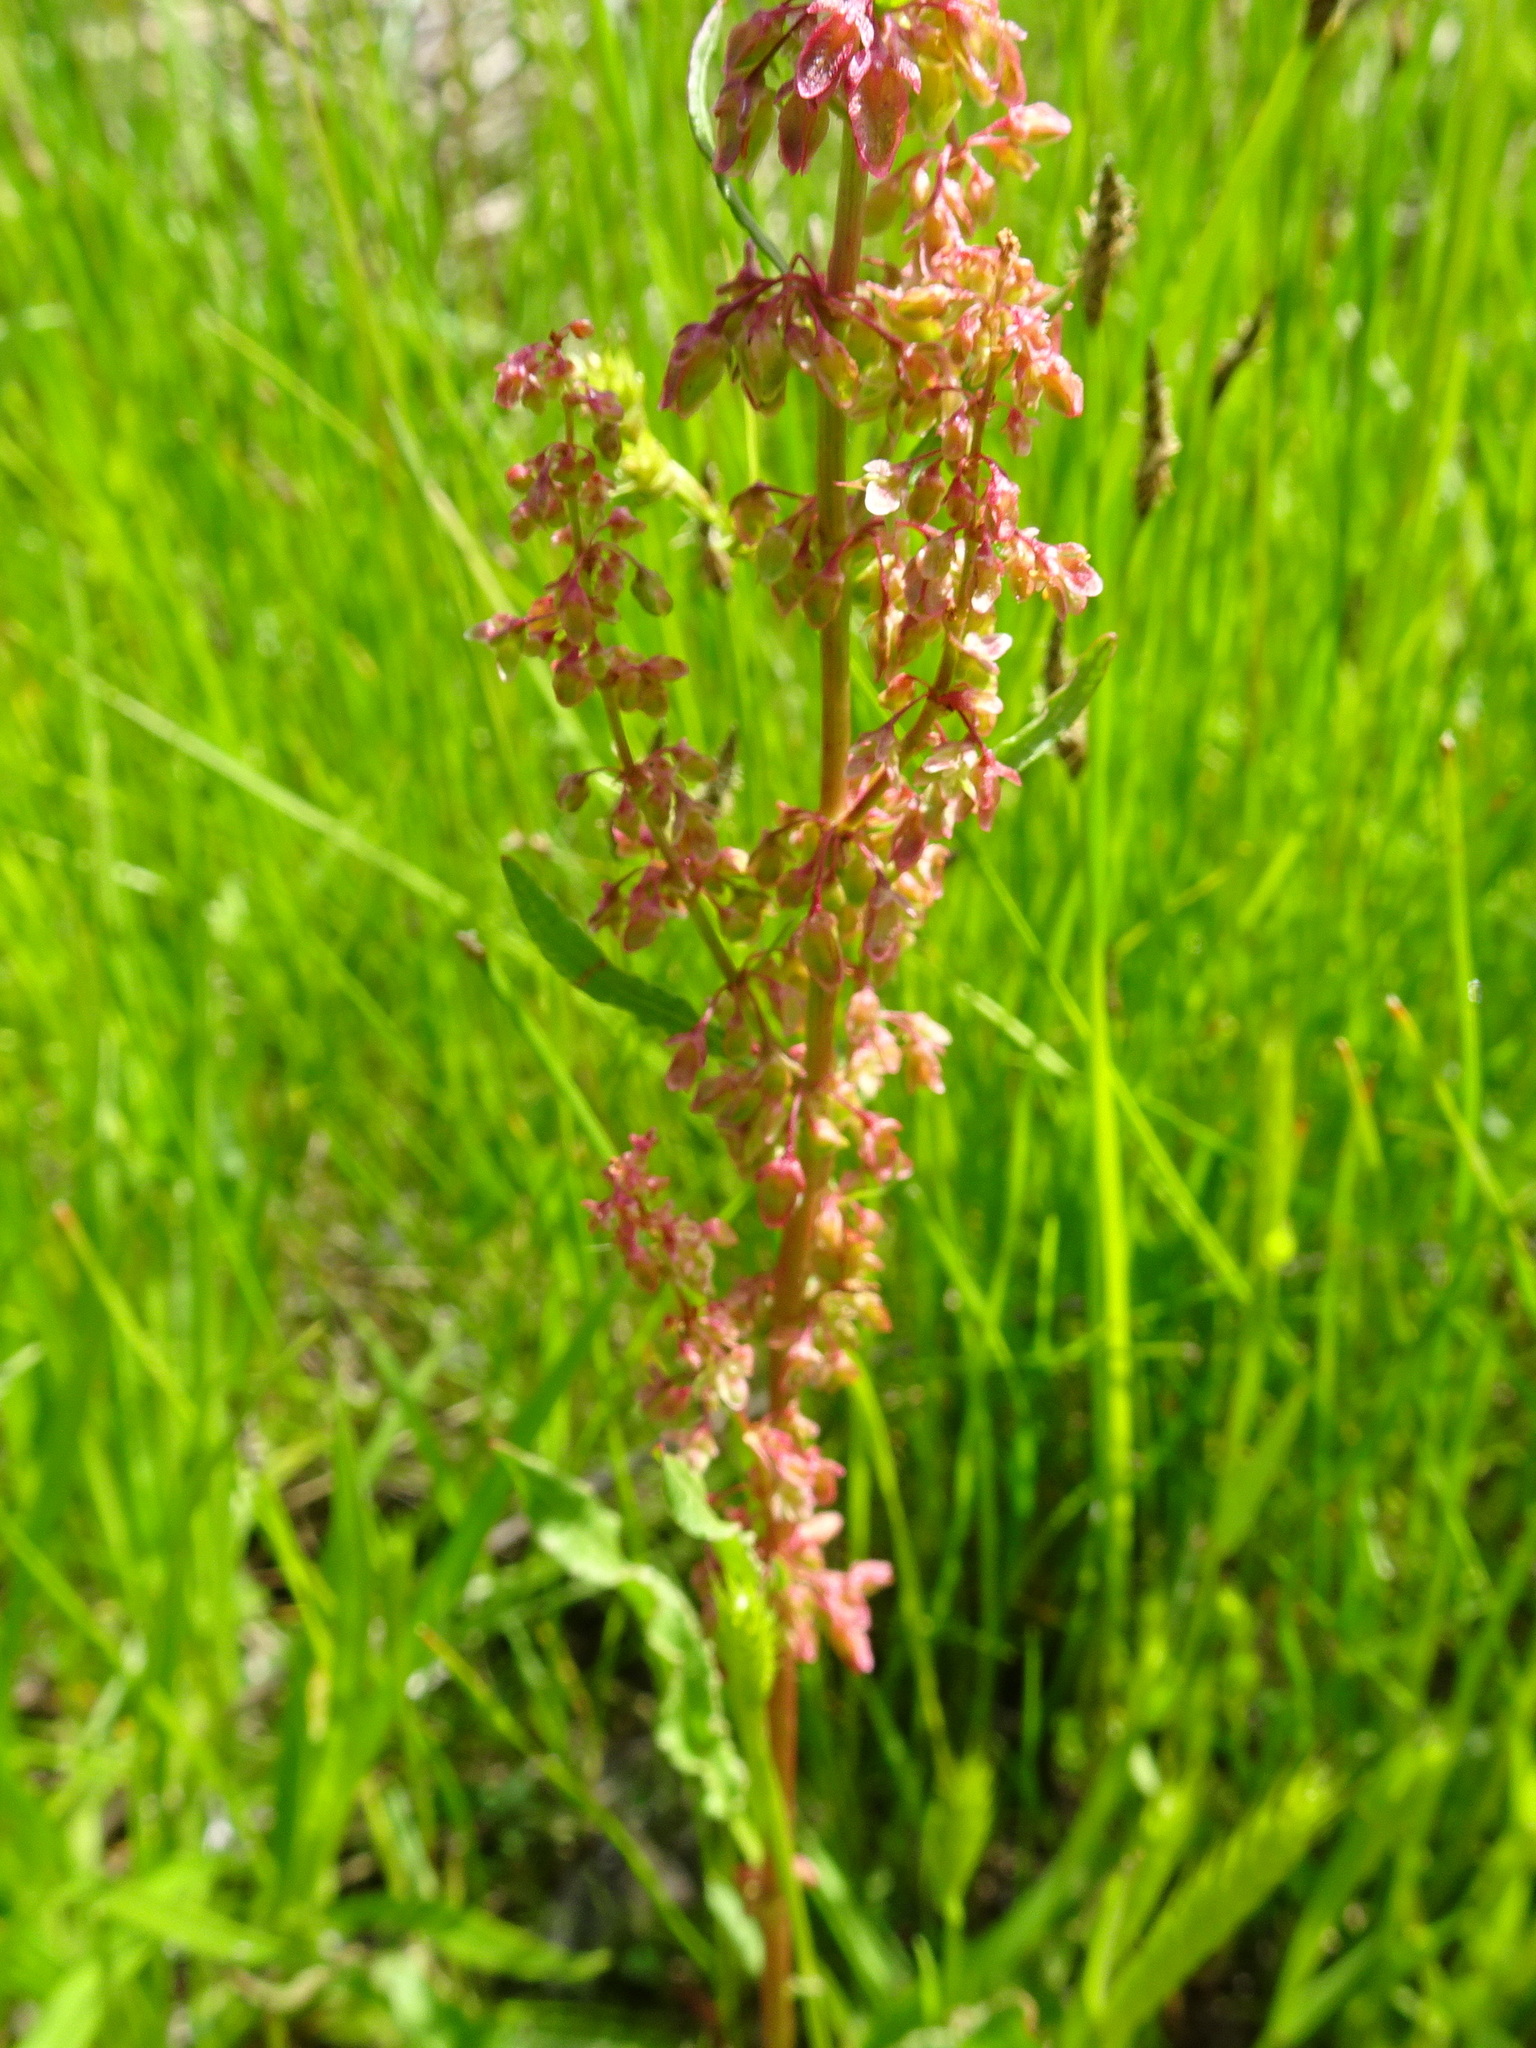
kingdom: Plantae
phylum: Tracheophyta
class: Magnoliopsida
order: Caryophyllales
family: Polygonaceae
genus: Rumex
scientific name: Rumex crispus
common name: Curled dock
